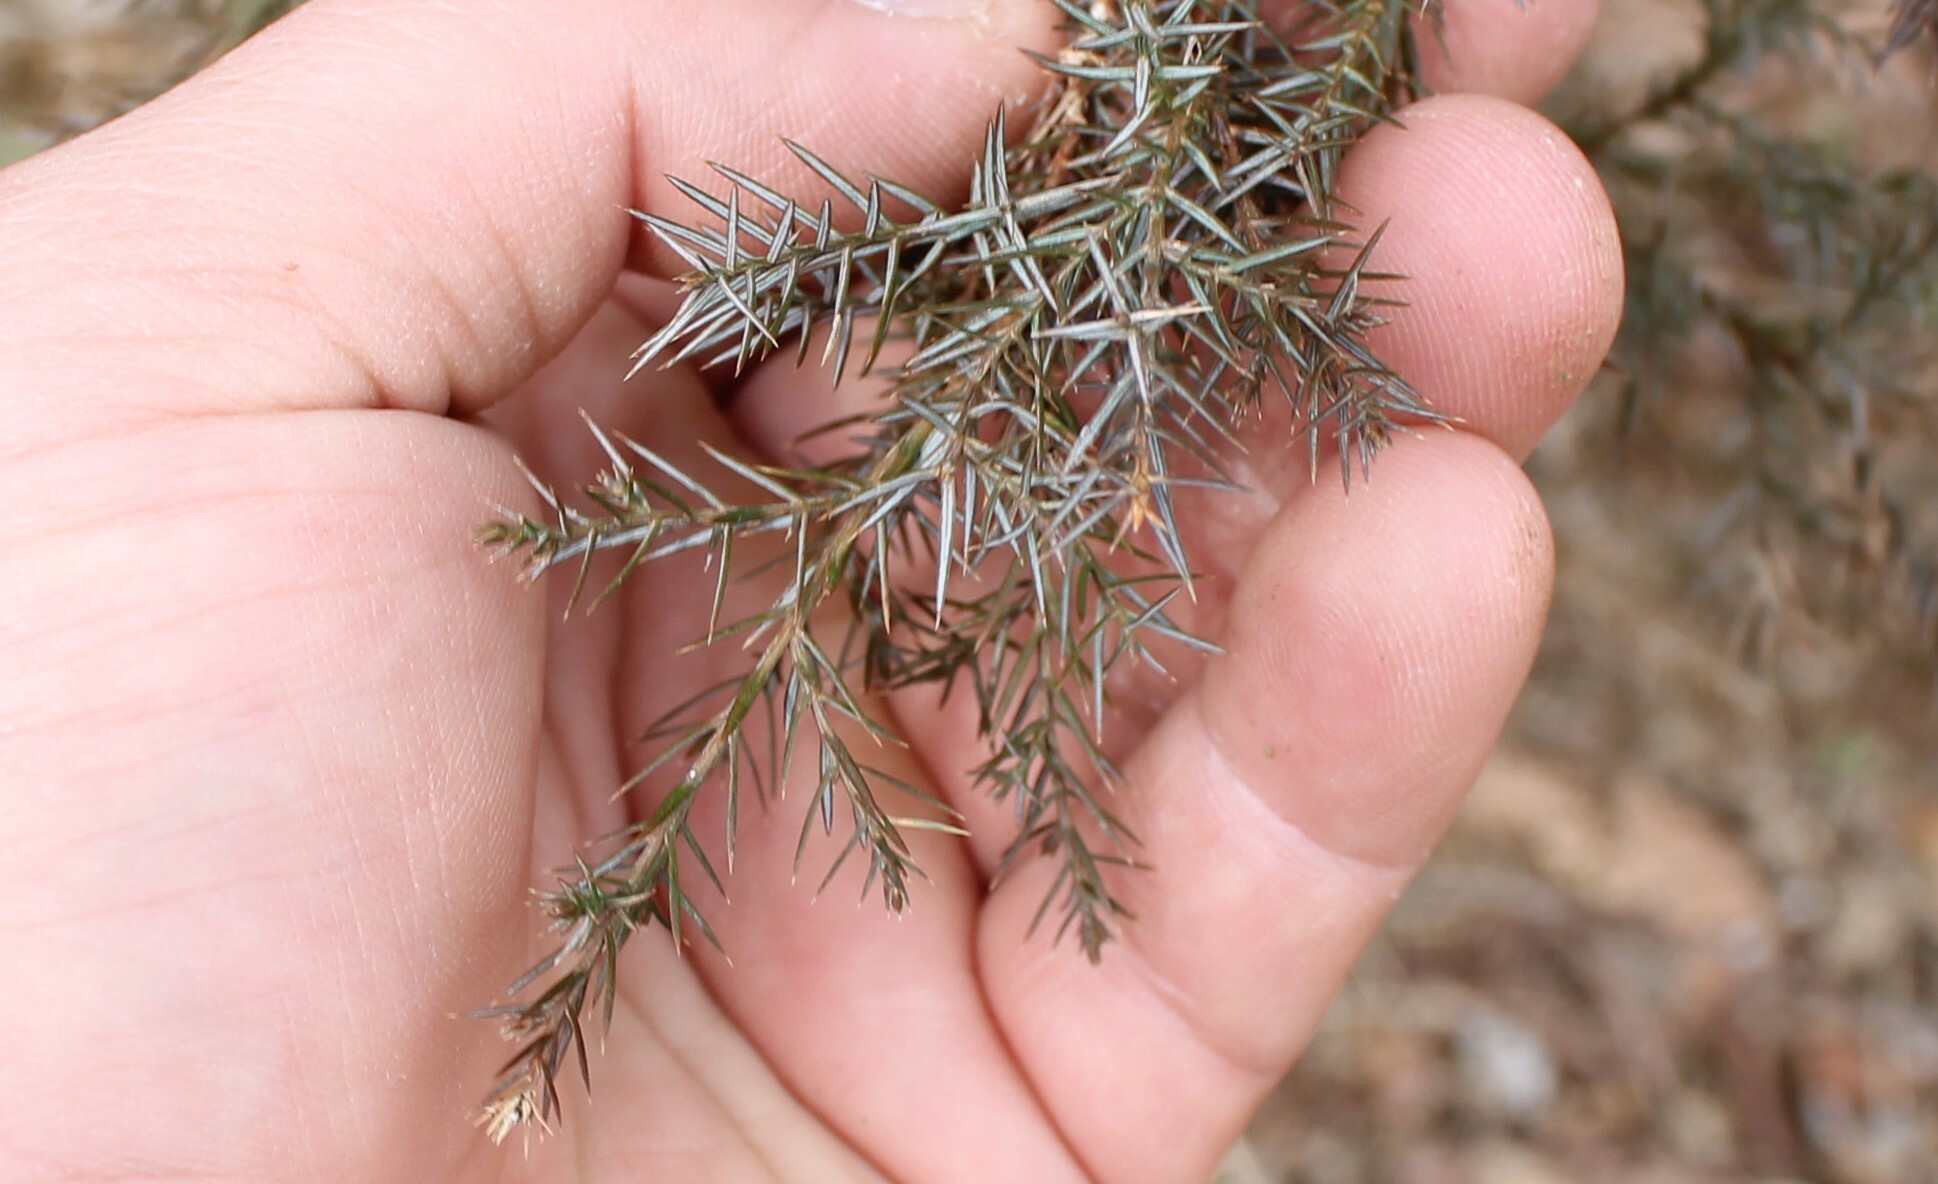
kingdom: Plantae
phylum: Tracheophyta
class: Pinopsida
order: Pinales
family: Cupressaceae
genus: Juniperus
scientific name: Juniperus virginiana
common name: Red juniper
